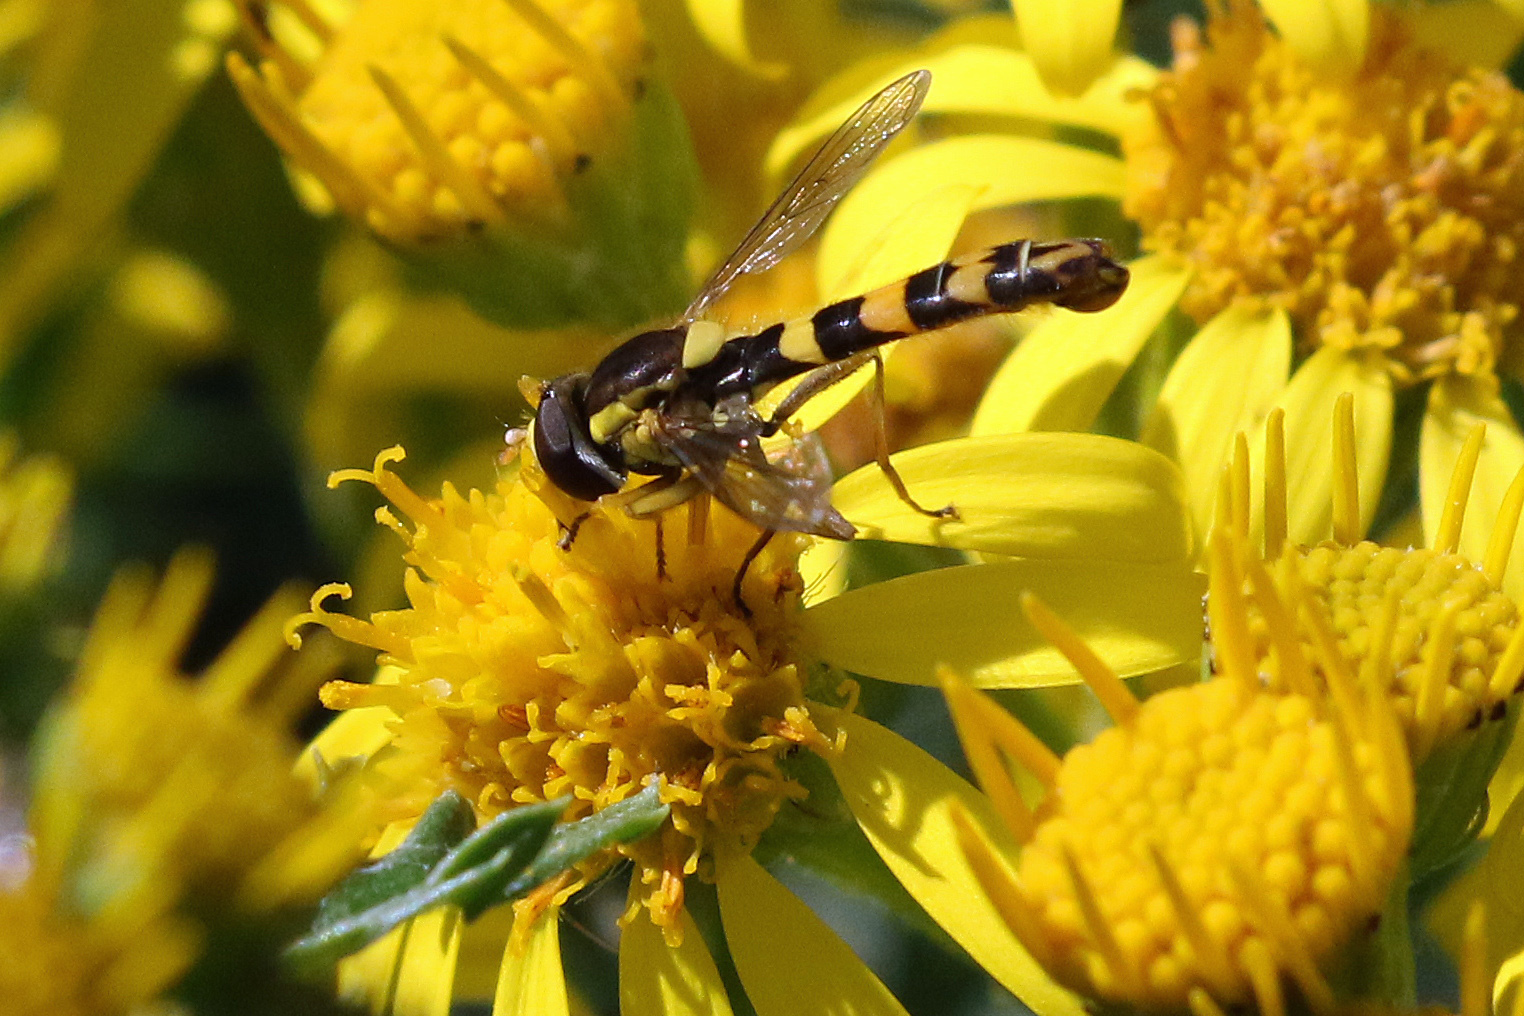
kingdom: Animalia
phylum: Arthropoda
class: Insecta
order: Diptera
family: Syrphidae
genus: Sphaerophoria
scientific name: Sphaerophoria scripta
